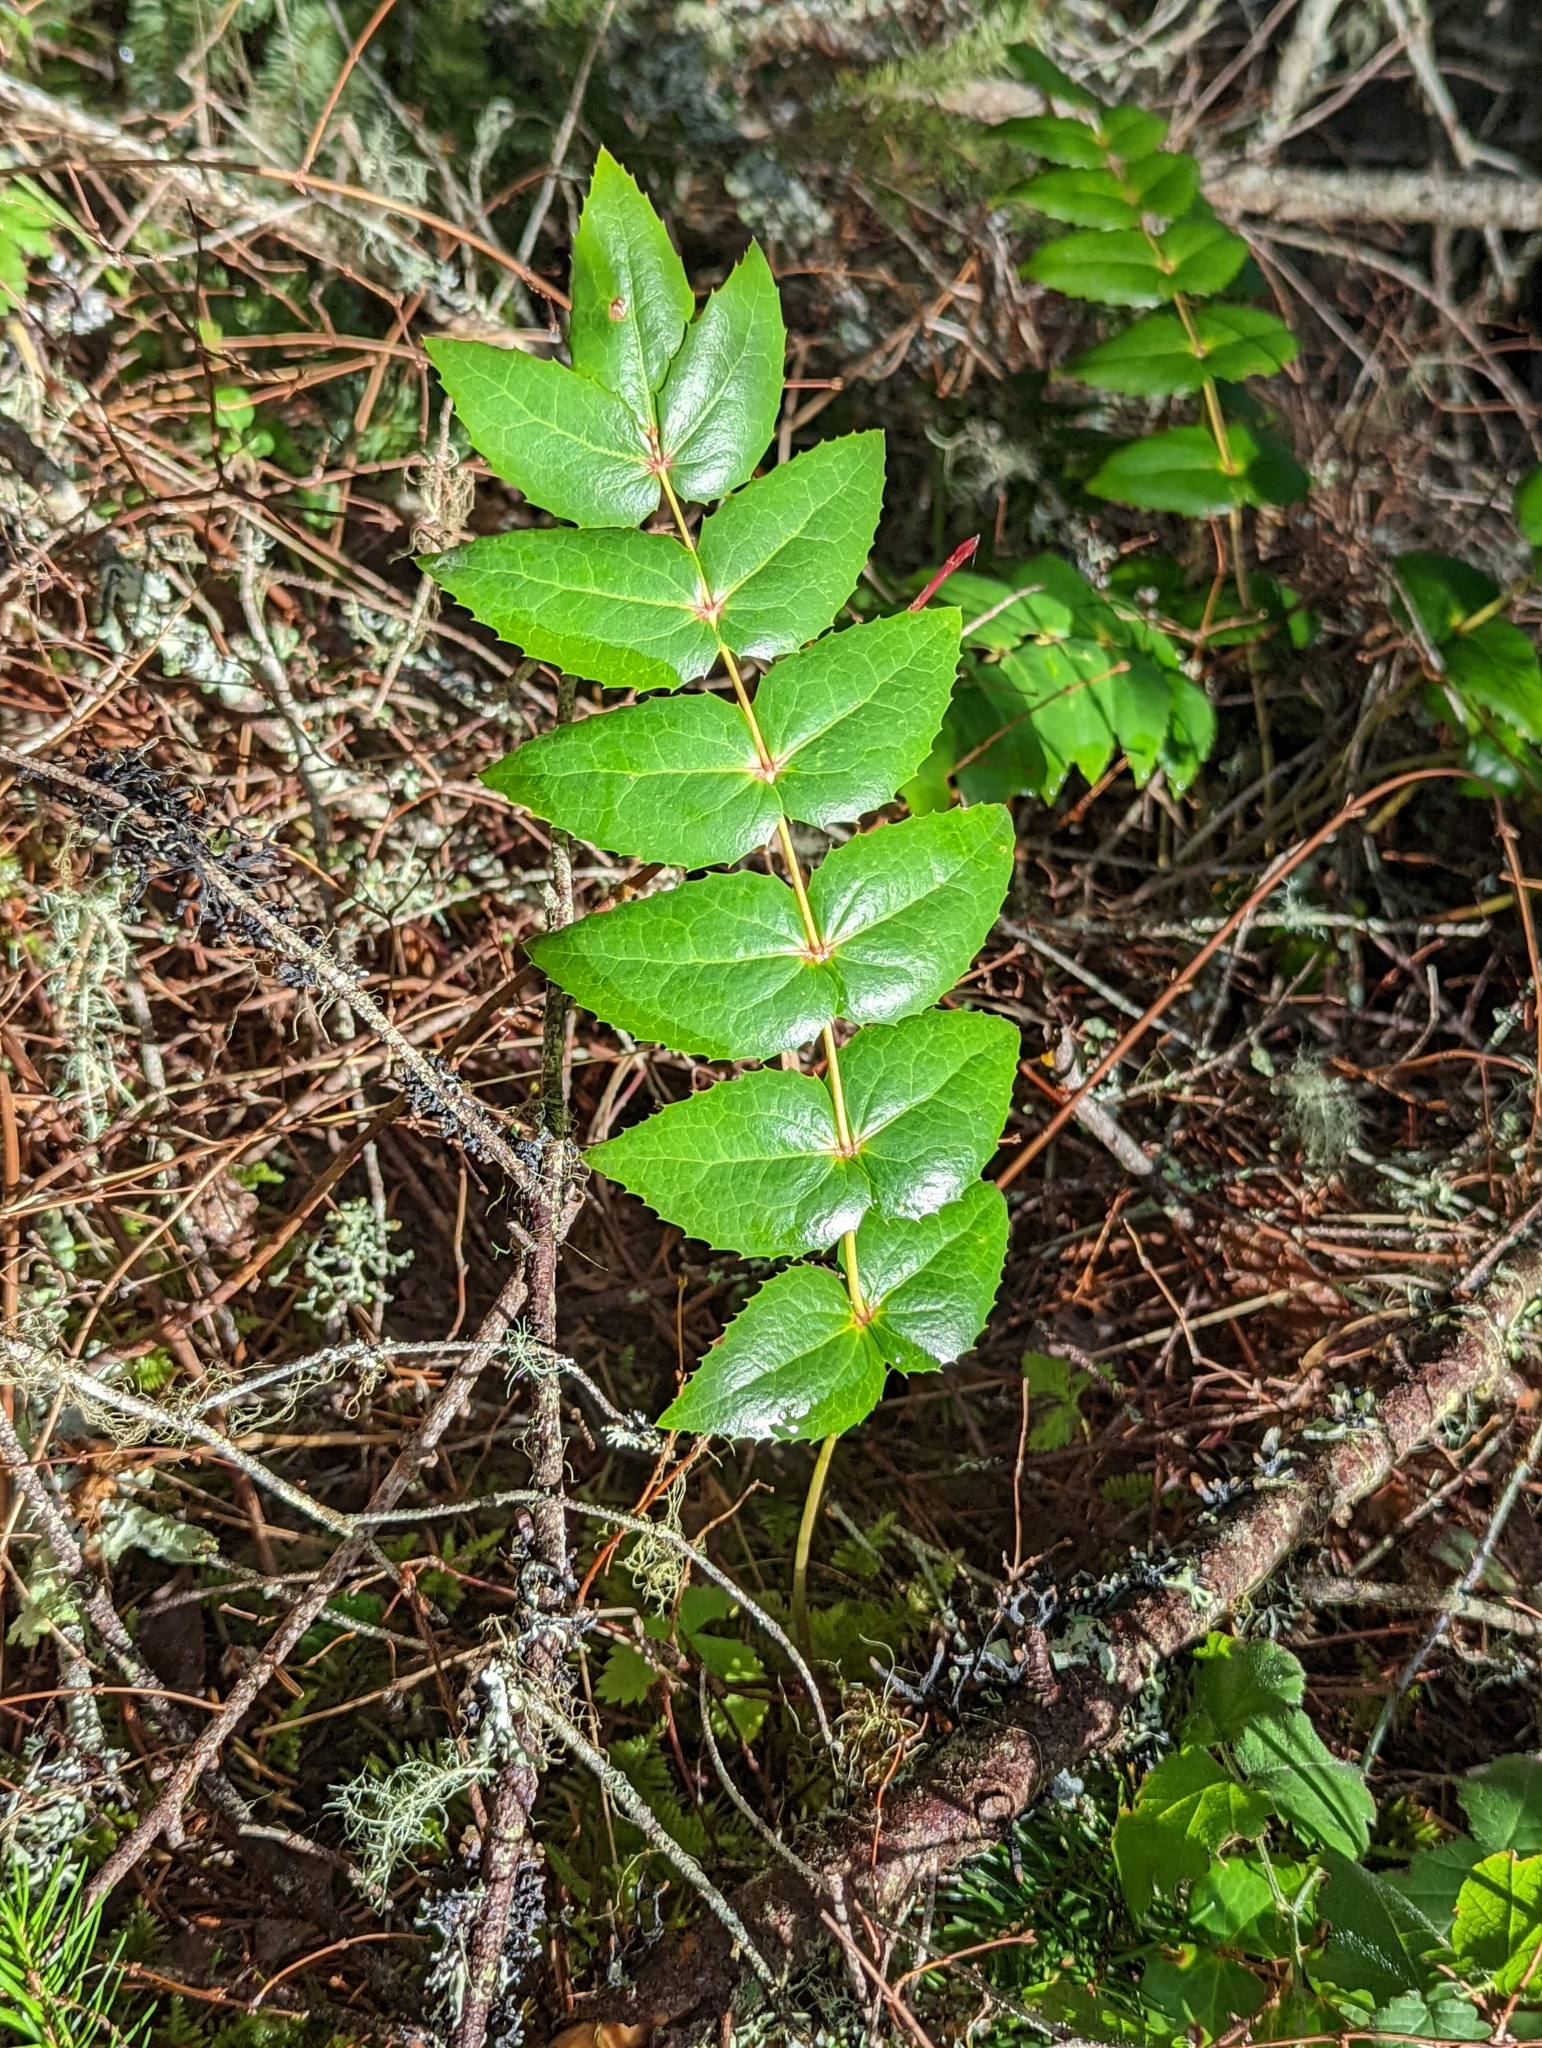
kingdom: Plantae
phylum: Tracheophyta
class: Magnoliopsida
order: Ranunculales
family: Berberidaceae
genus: Mahonia
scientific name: Mahonia nervosa
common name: Cascade oregon-grape
